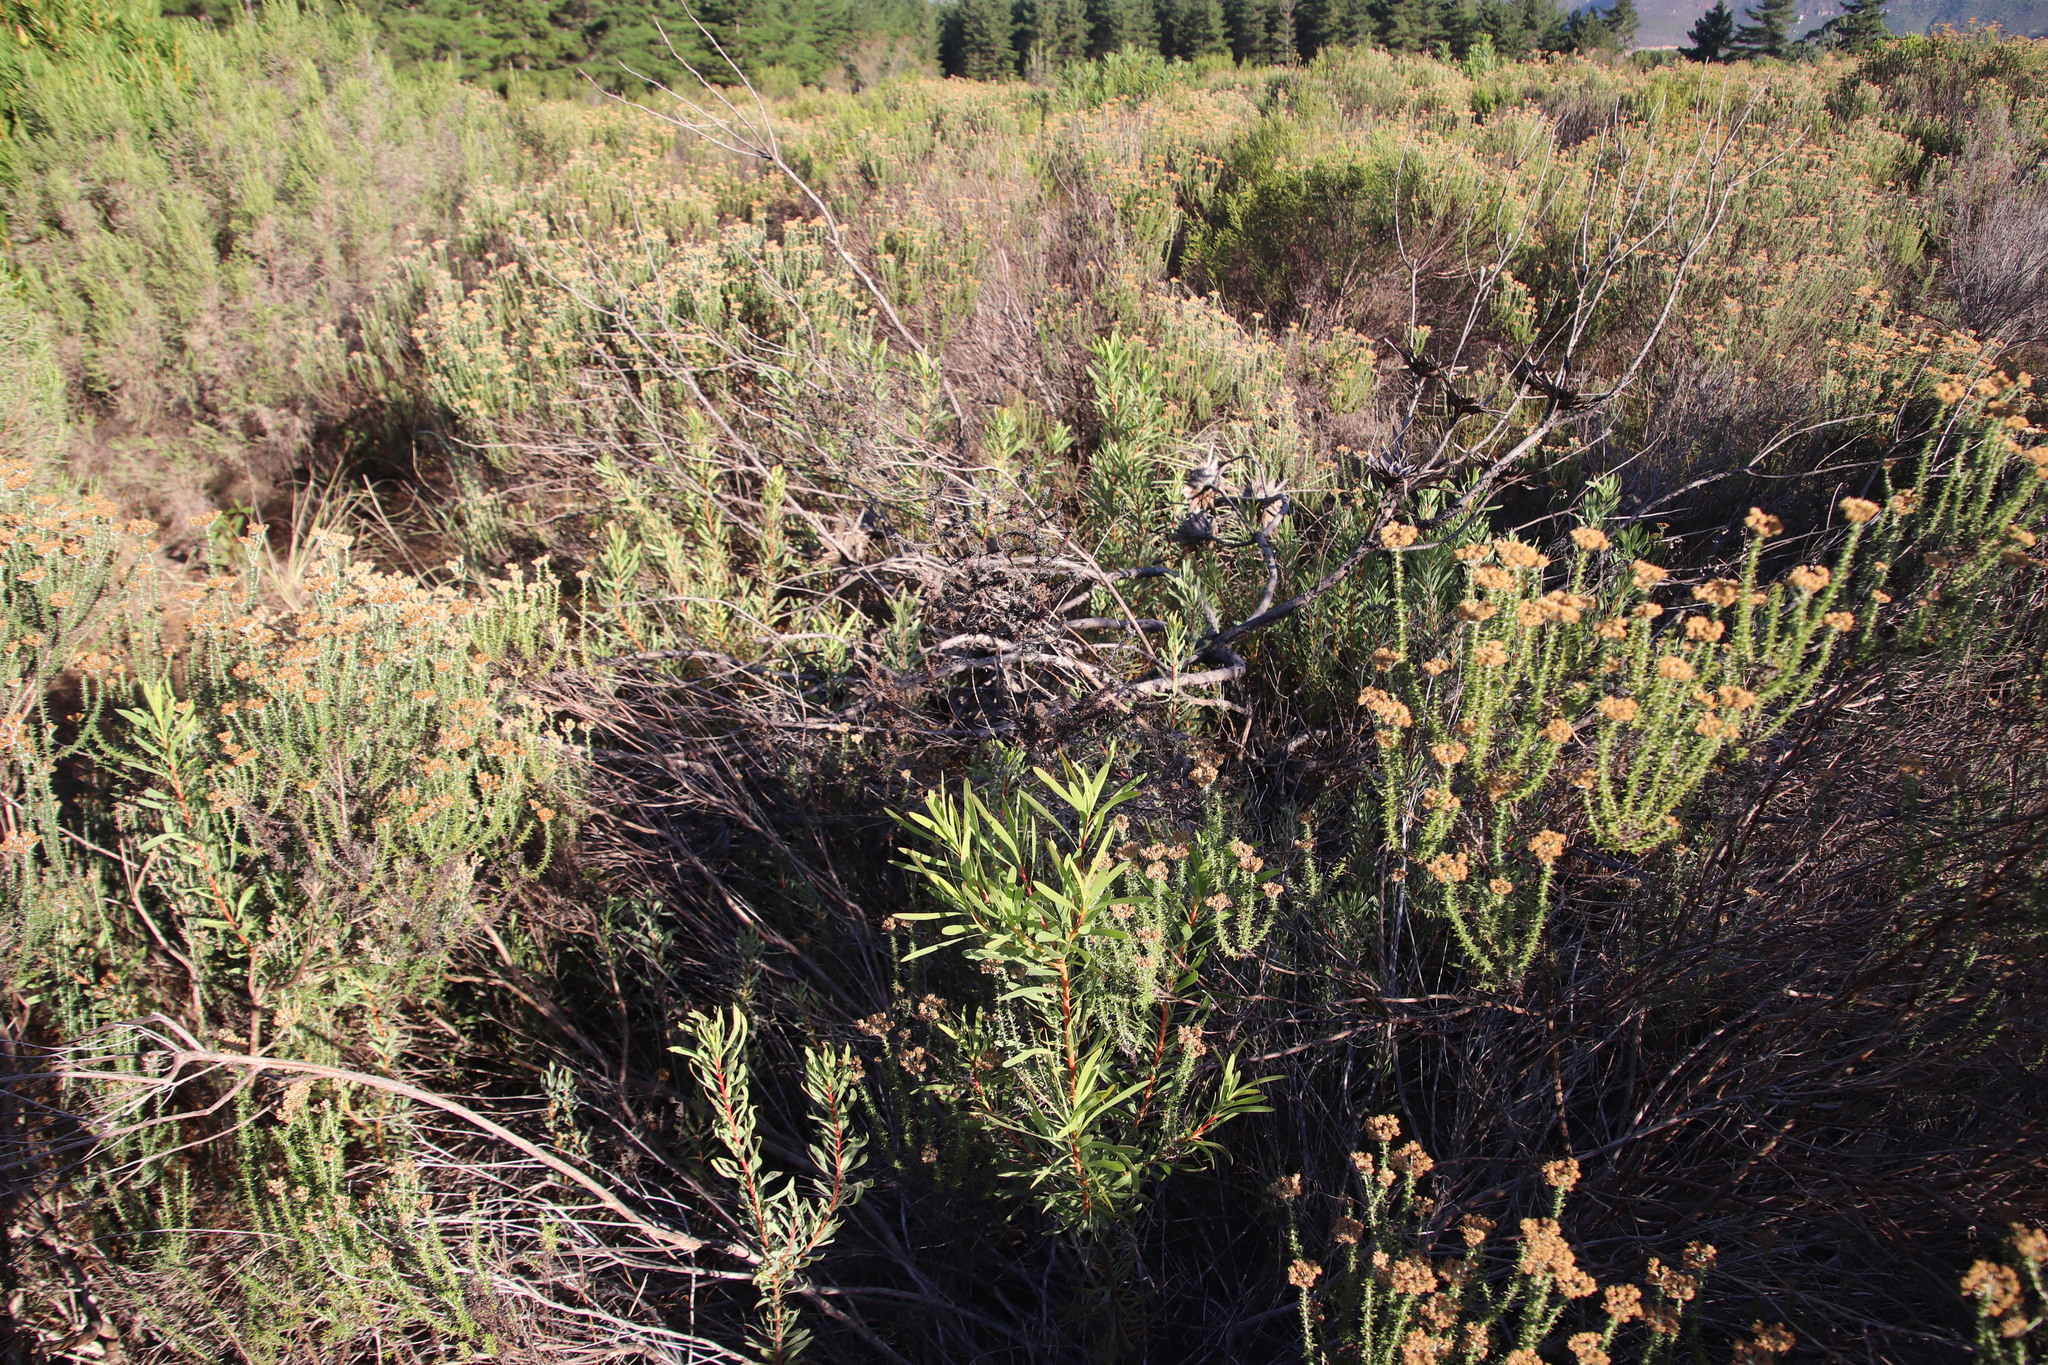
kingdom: Plantae
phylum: Tracheophyta
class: Magnoliopsida
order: Proteales
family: Proteaceae
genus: Protea
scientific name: Protea repens
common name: Sugarbush
